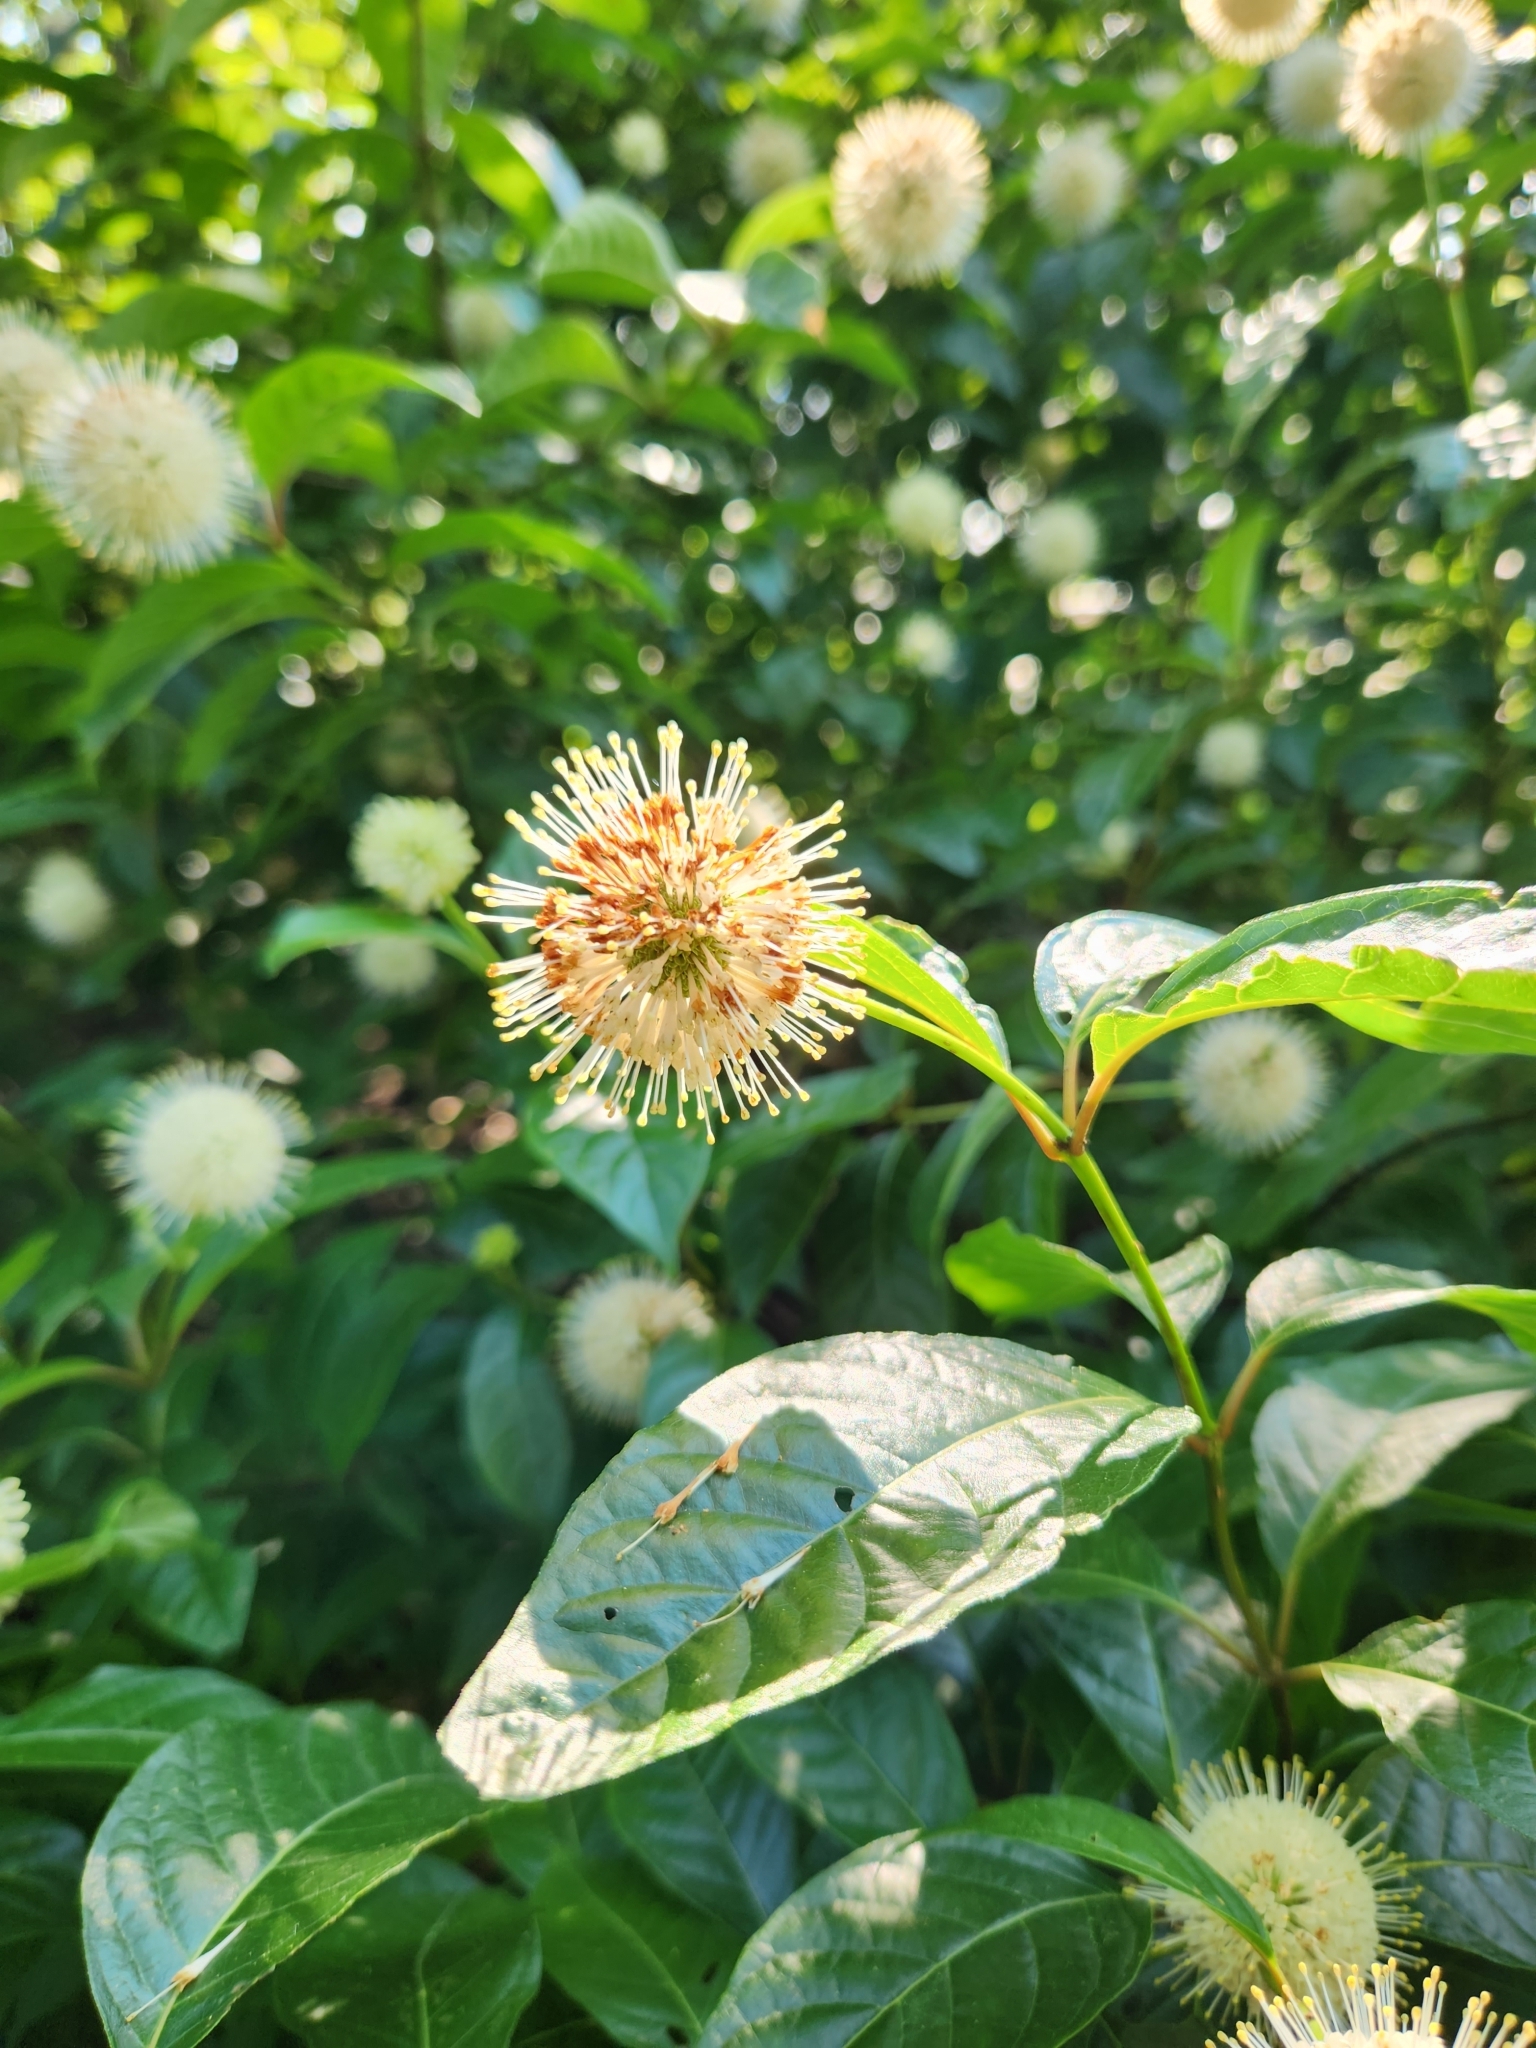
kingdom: Plantae
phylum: Tracheophyta
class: Magnoliopsida
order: Gentianales
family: Rubiaceae
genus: Cephalanthus
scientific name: Cephalanthus occidentalis
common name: Button-willow
